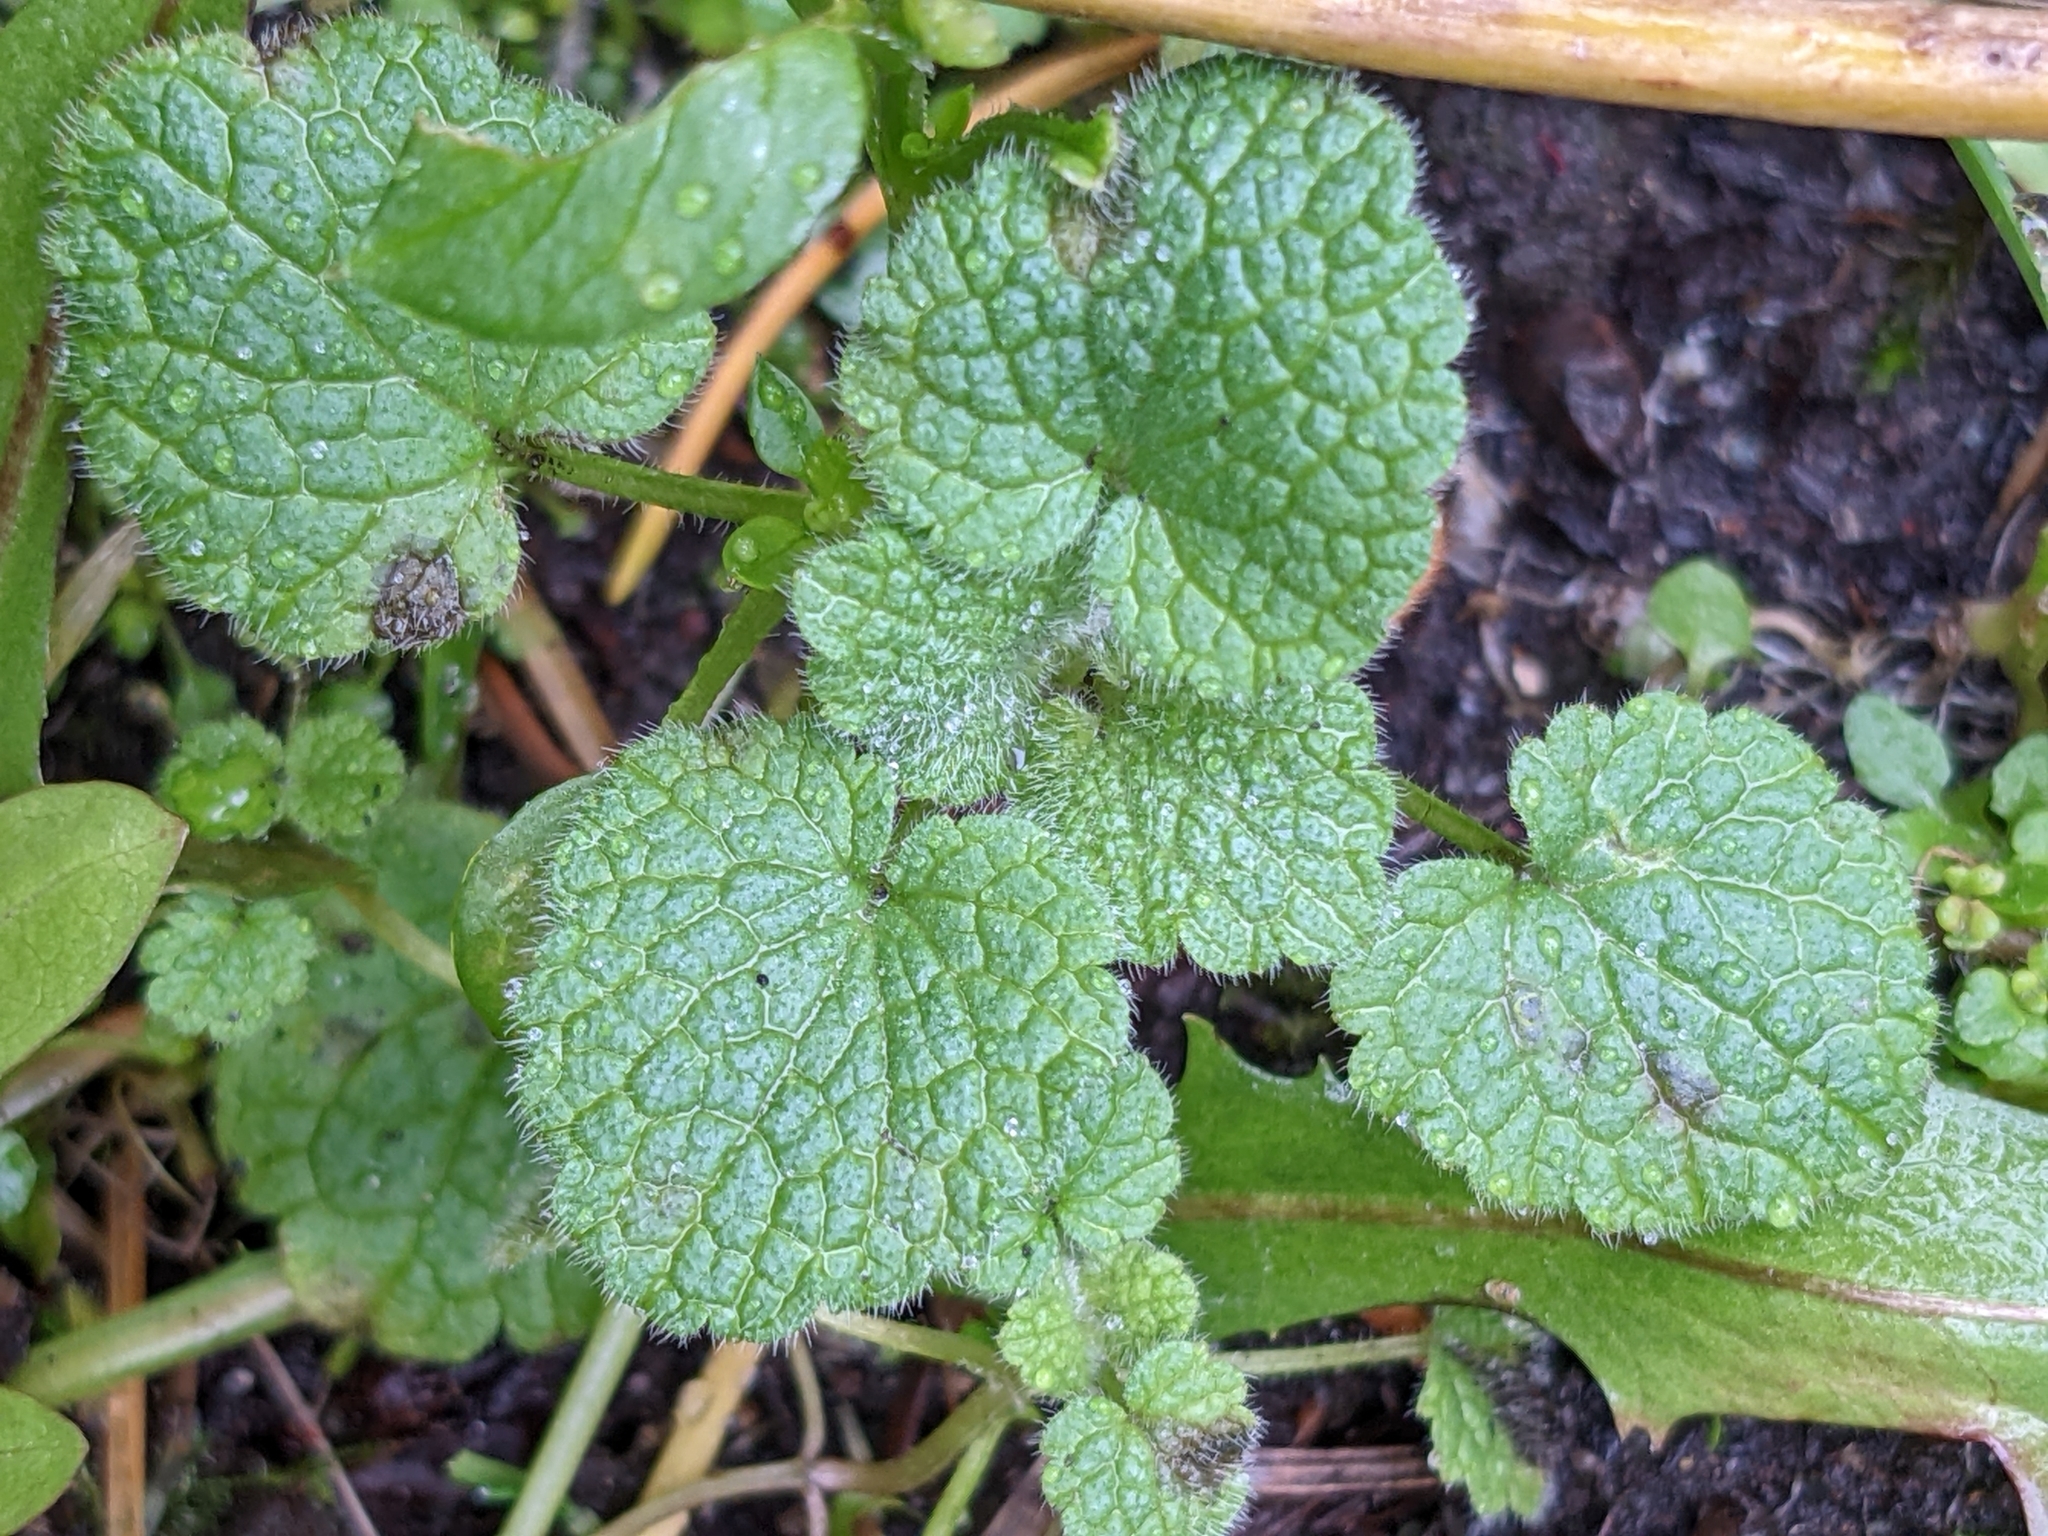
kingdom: Plantae
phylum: Tracheophyta
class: Magnoliopsida
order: Lamiales
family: Lamiaceae
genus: Lamium
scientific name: Lamium purpureum
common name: Red dead-nettle
